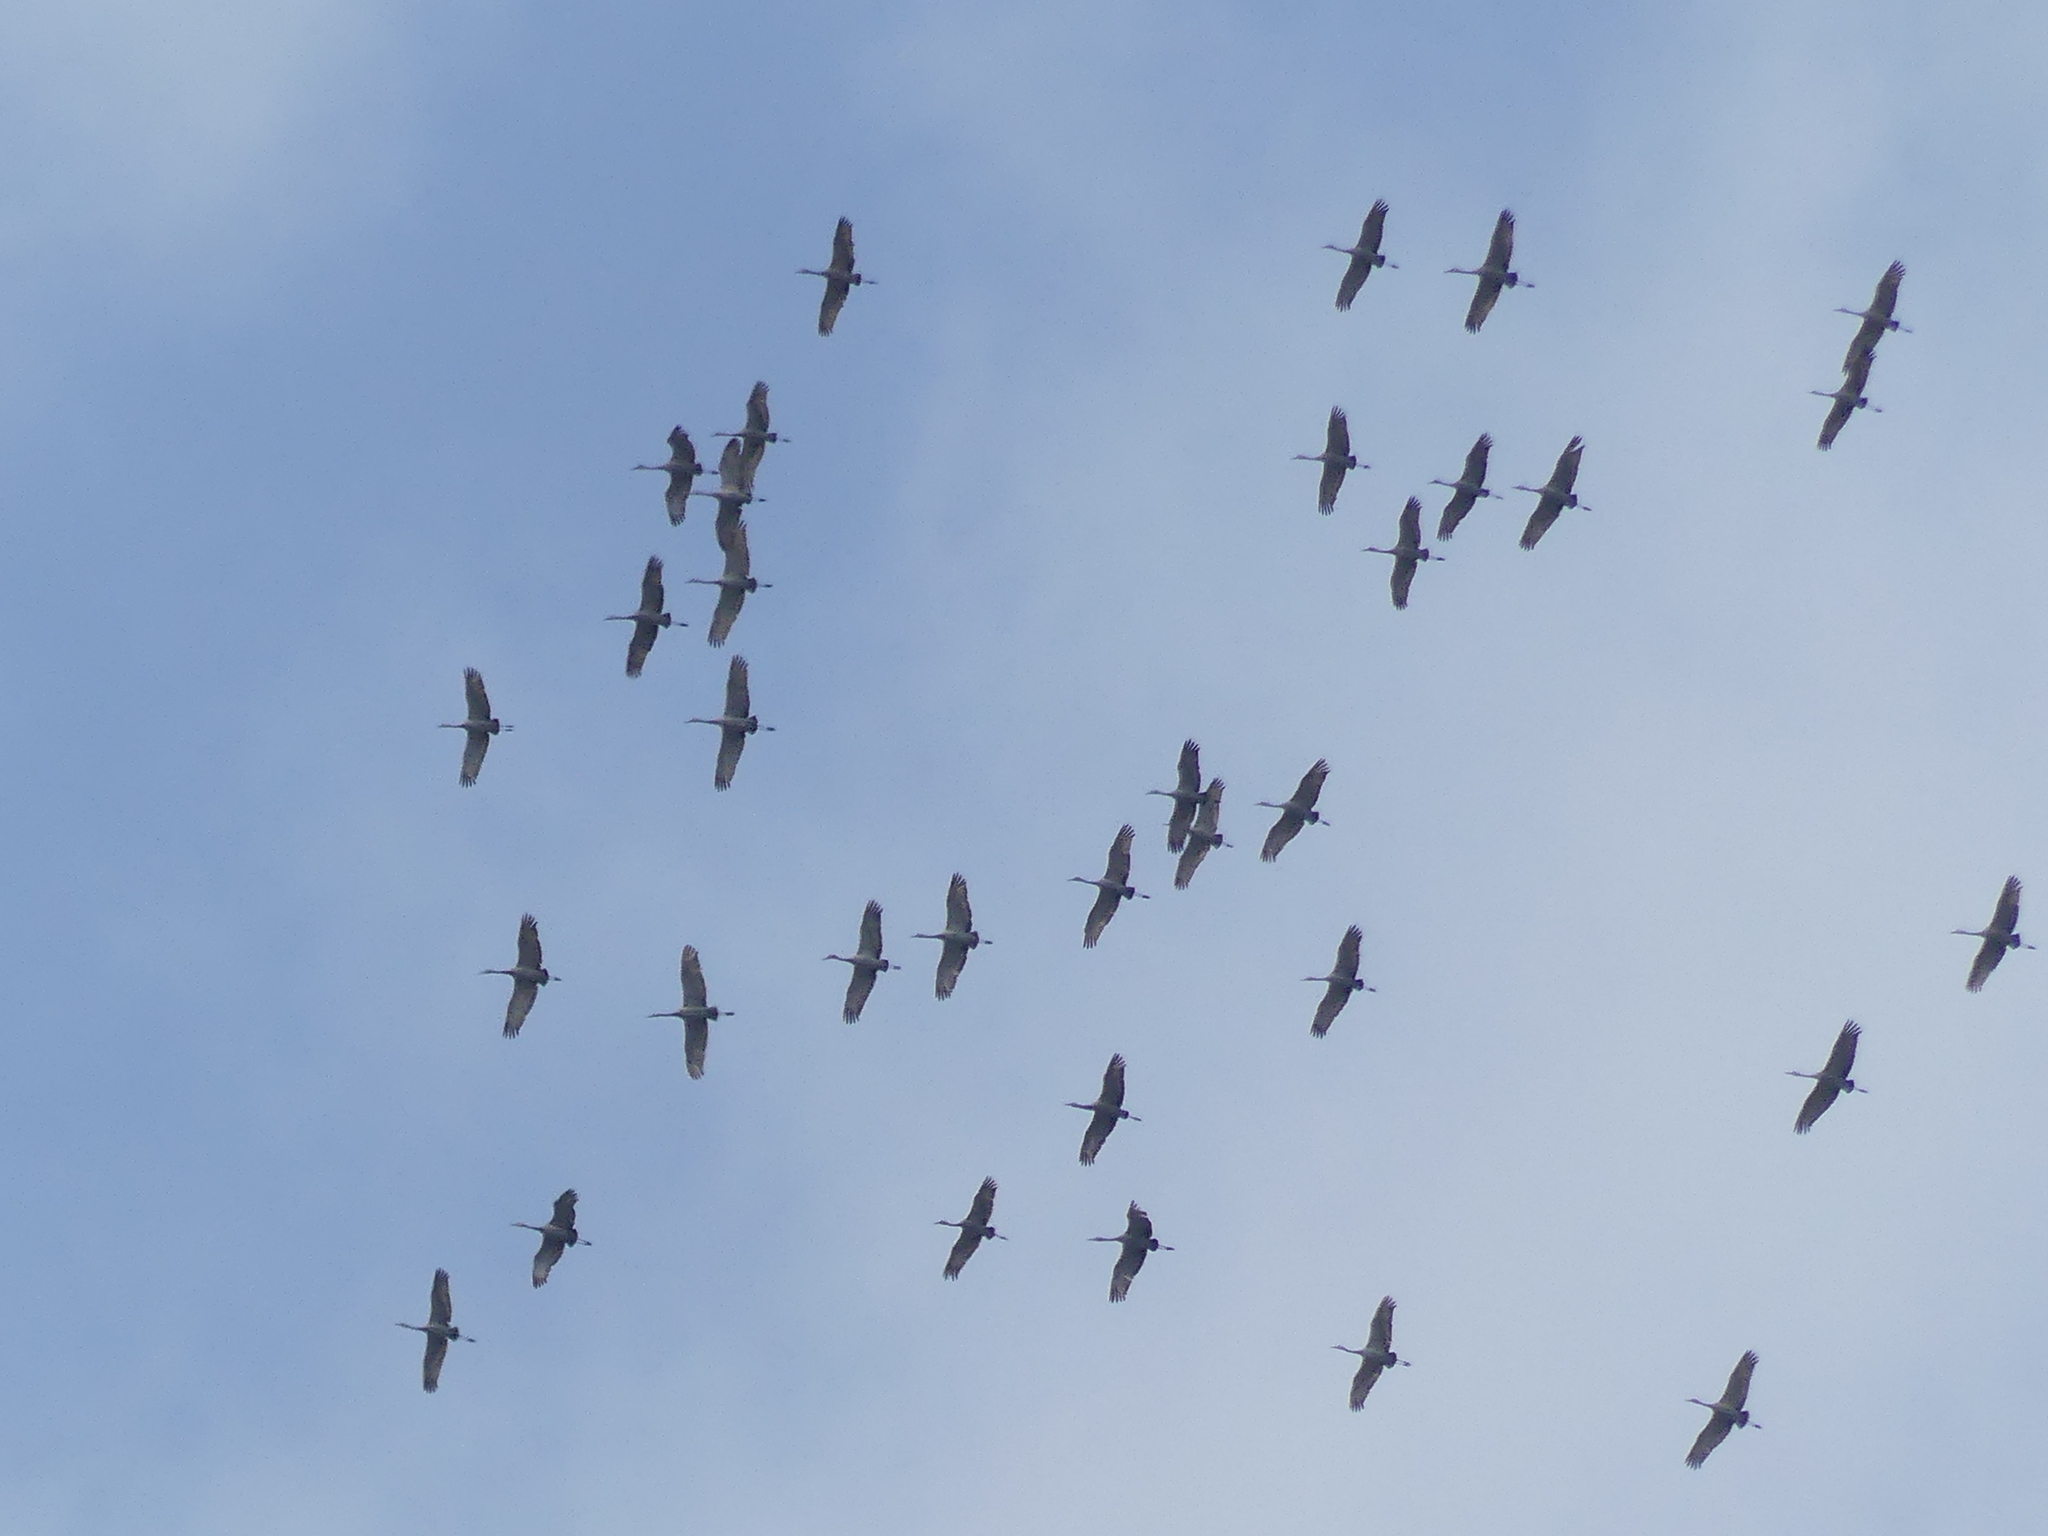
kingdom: Animalia
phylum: Chordata
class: Aves
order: Gruiformes
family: Gruidae
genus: Grus
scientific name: Grus canadensis
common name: Sandhill crane
